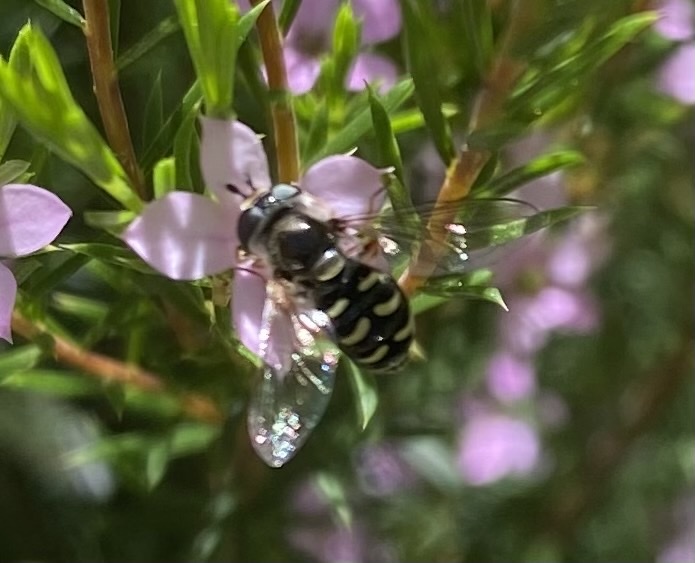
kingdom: Animalia
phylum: Arthropoda
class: Insecta
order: Diptera
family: Syrphidae
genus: Eupeodes
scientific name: Eupeodes volucris
